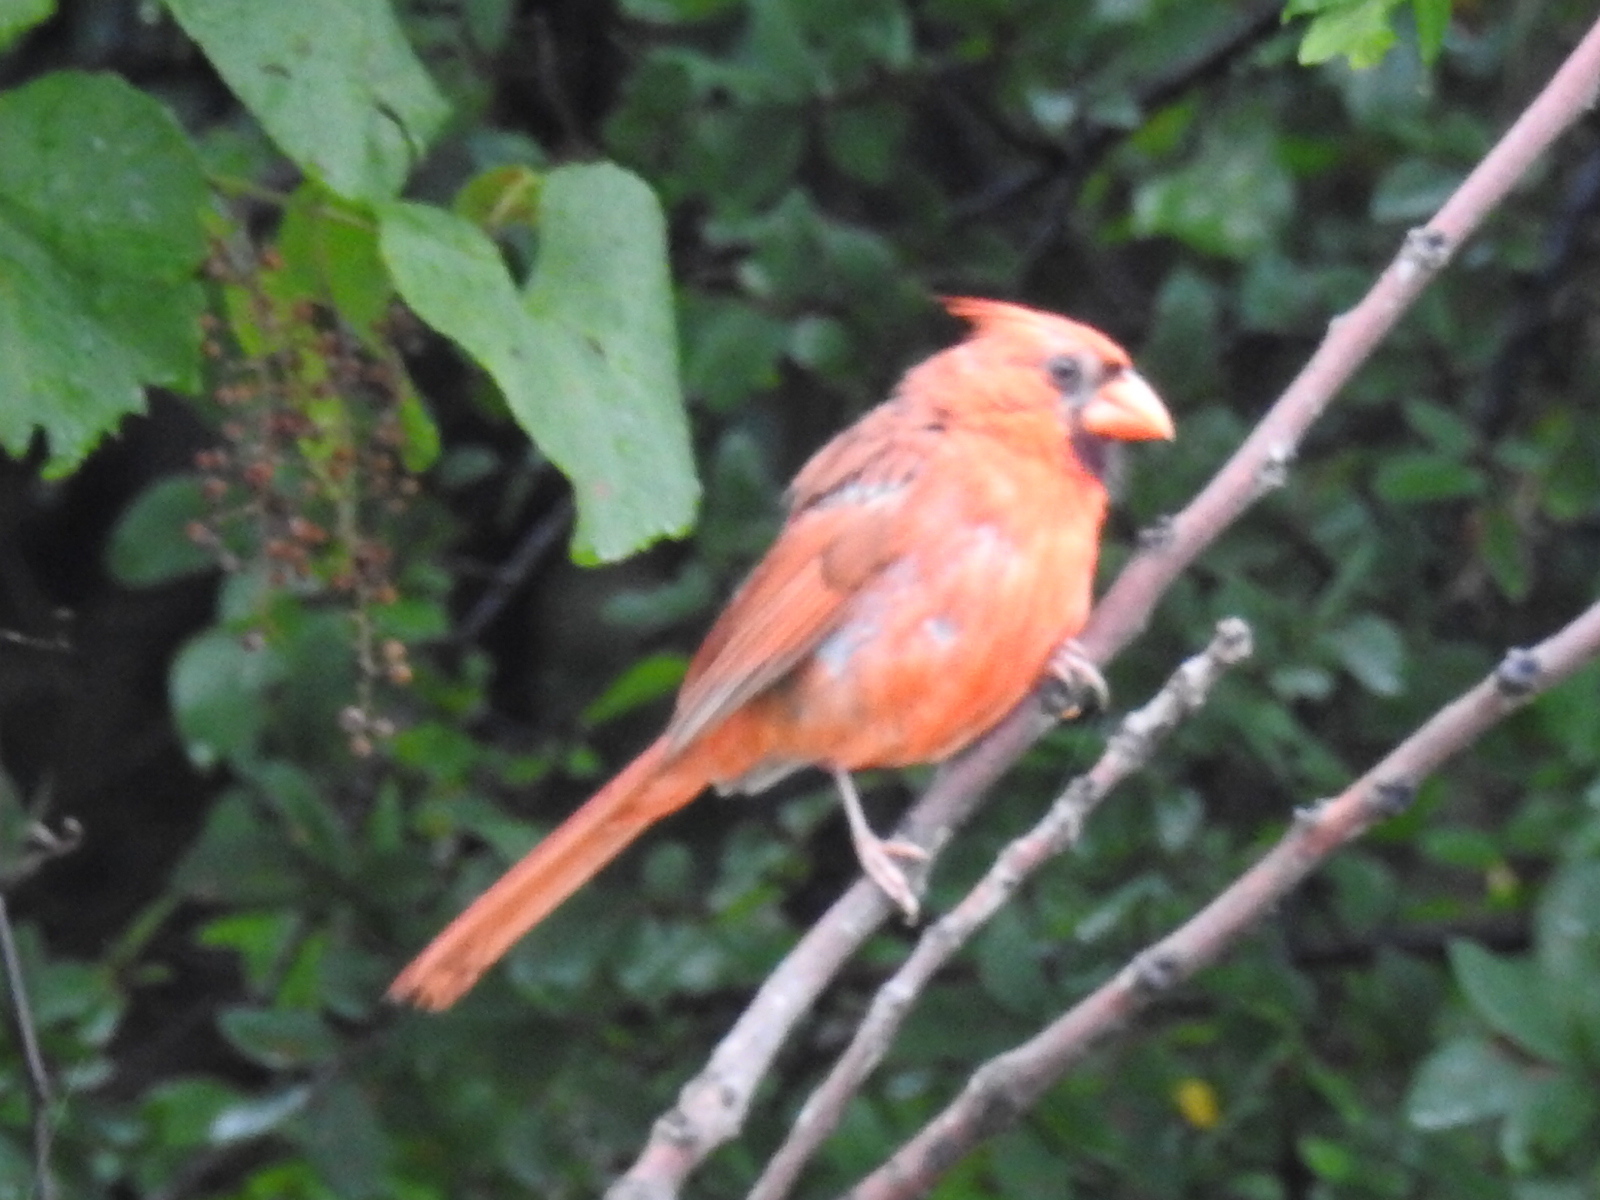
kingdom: Animalia
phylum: Chordata
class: Aves
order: Passeriformes
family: Cardinalidae
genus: Cardinalis
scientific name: Cardinalis cardinalis
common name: Northern cardinal
